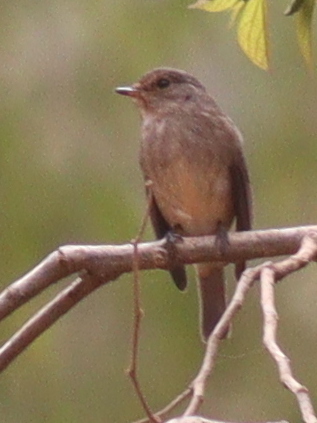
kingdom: Animalia
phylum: Chordata
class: Aves
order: Passeriformes
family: Muscicapidae
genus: Muscicapa
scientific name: Muscicapa adusta
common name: African dusky flycatcher
